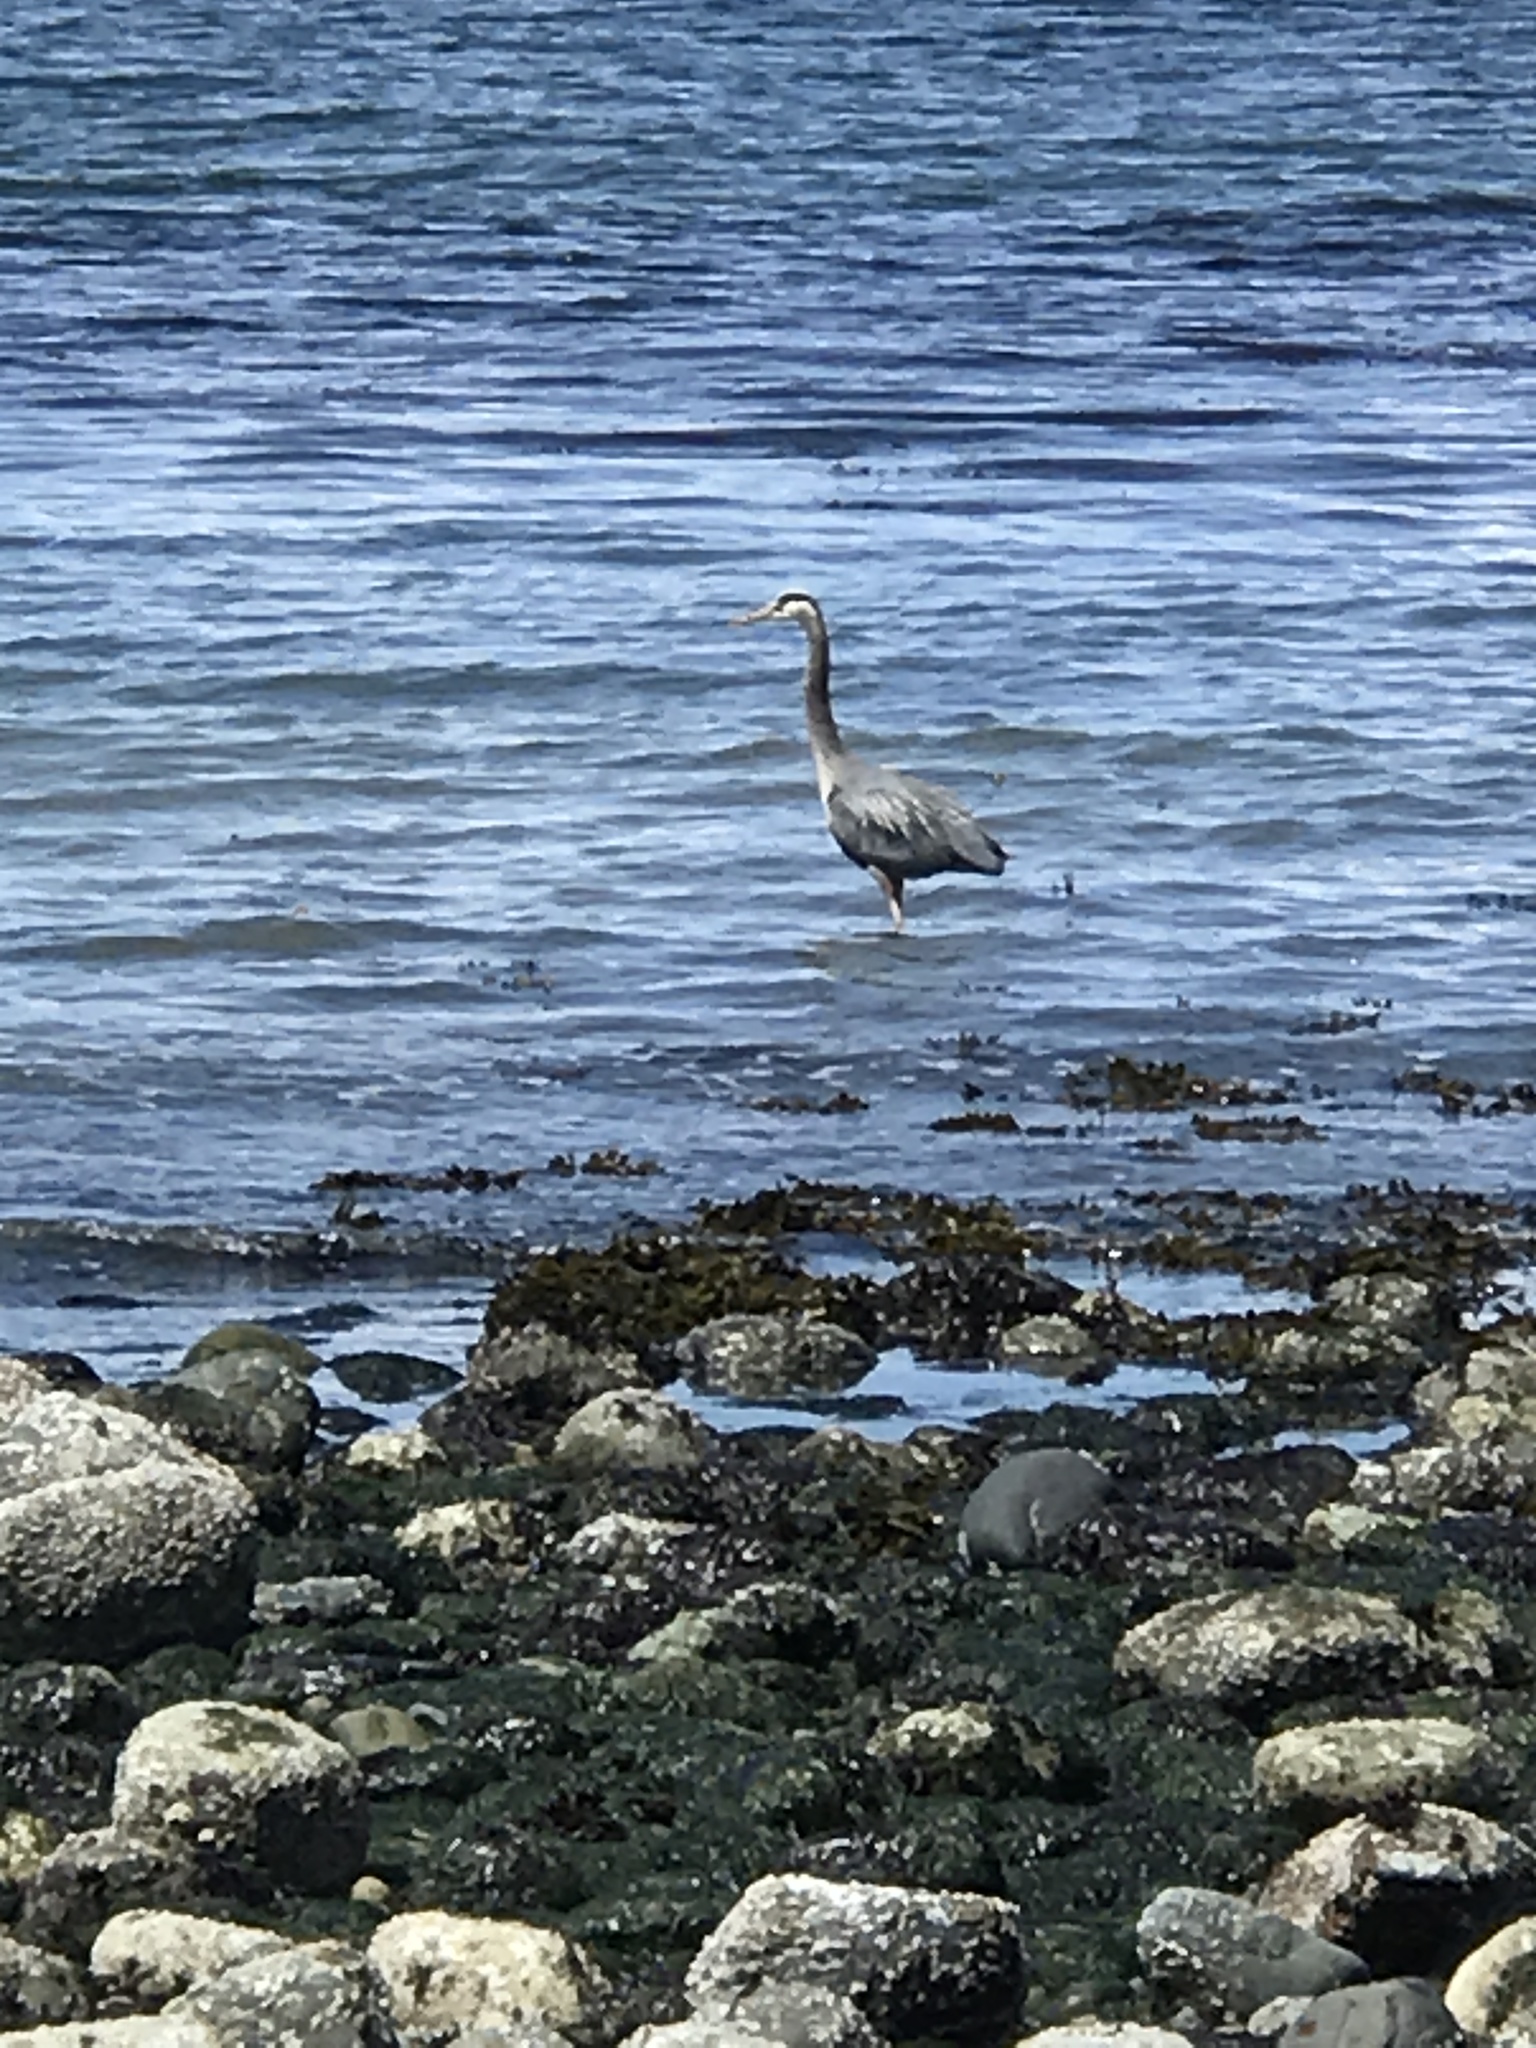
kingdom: Animalia
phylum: Chordata
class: Aves
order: Pelecaniformes
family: Ardeidae
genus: Ardea
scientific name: Ardea herodias
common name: Great blue heron
